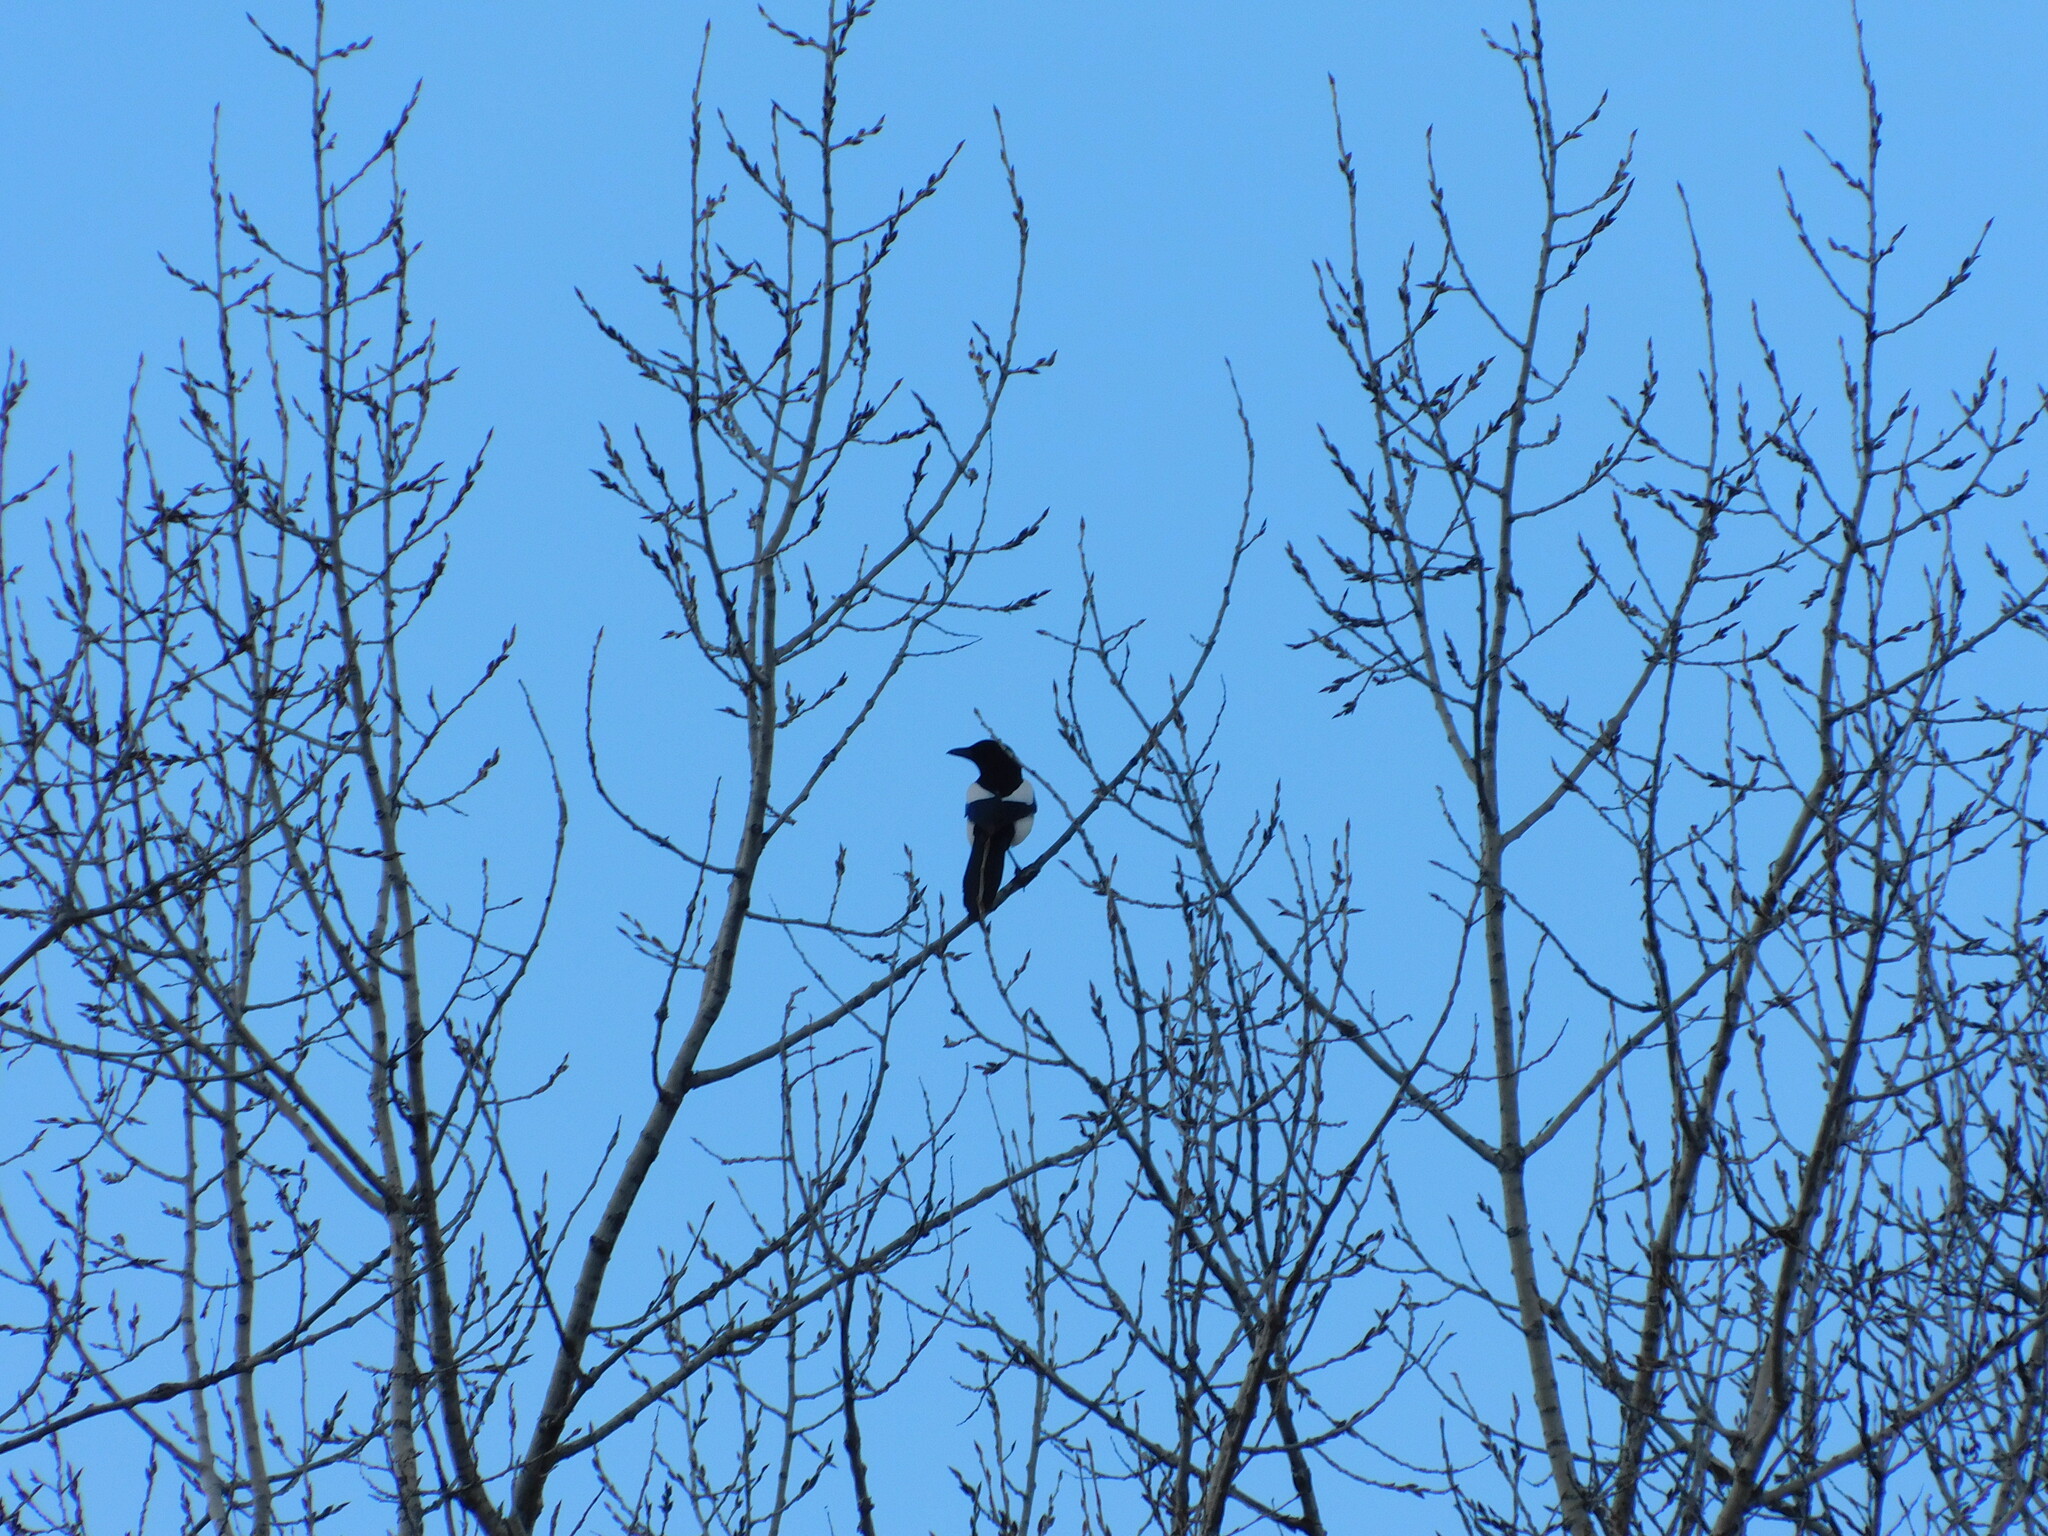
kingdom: Animalia
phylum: Chordata
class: Aves
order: Passeriformes
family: Corvidae
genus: Pica
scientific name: Pica pica
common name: Eurasian magpie
